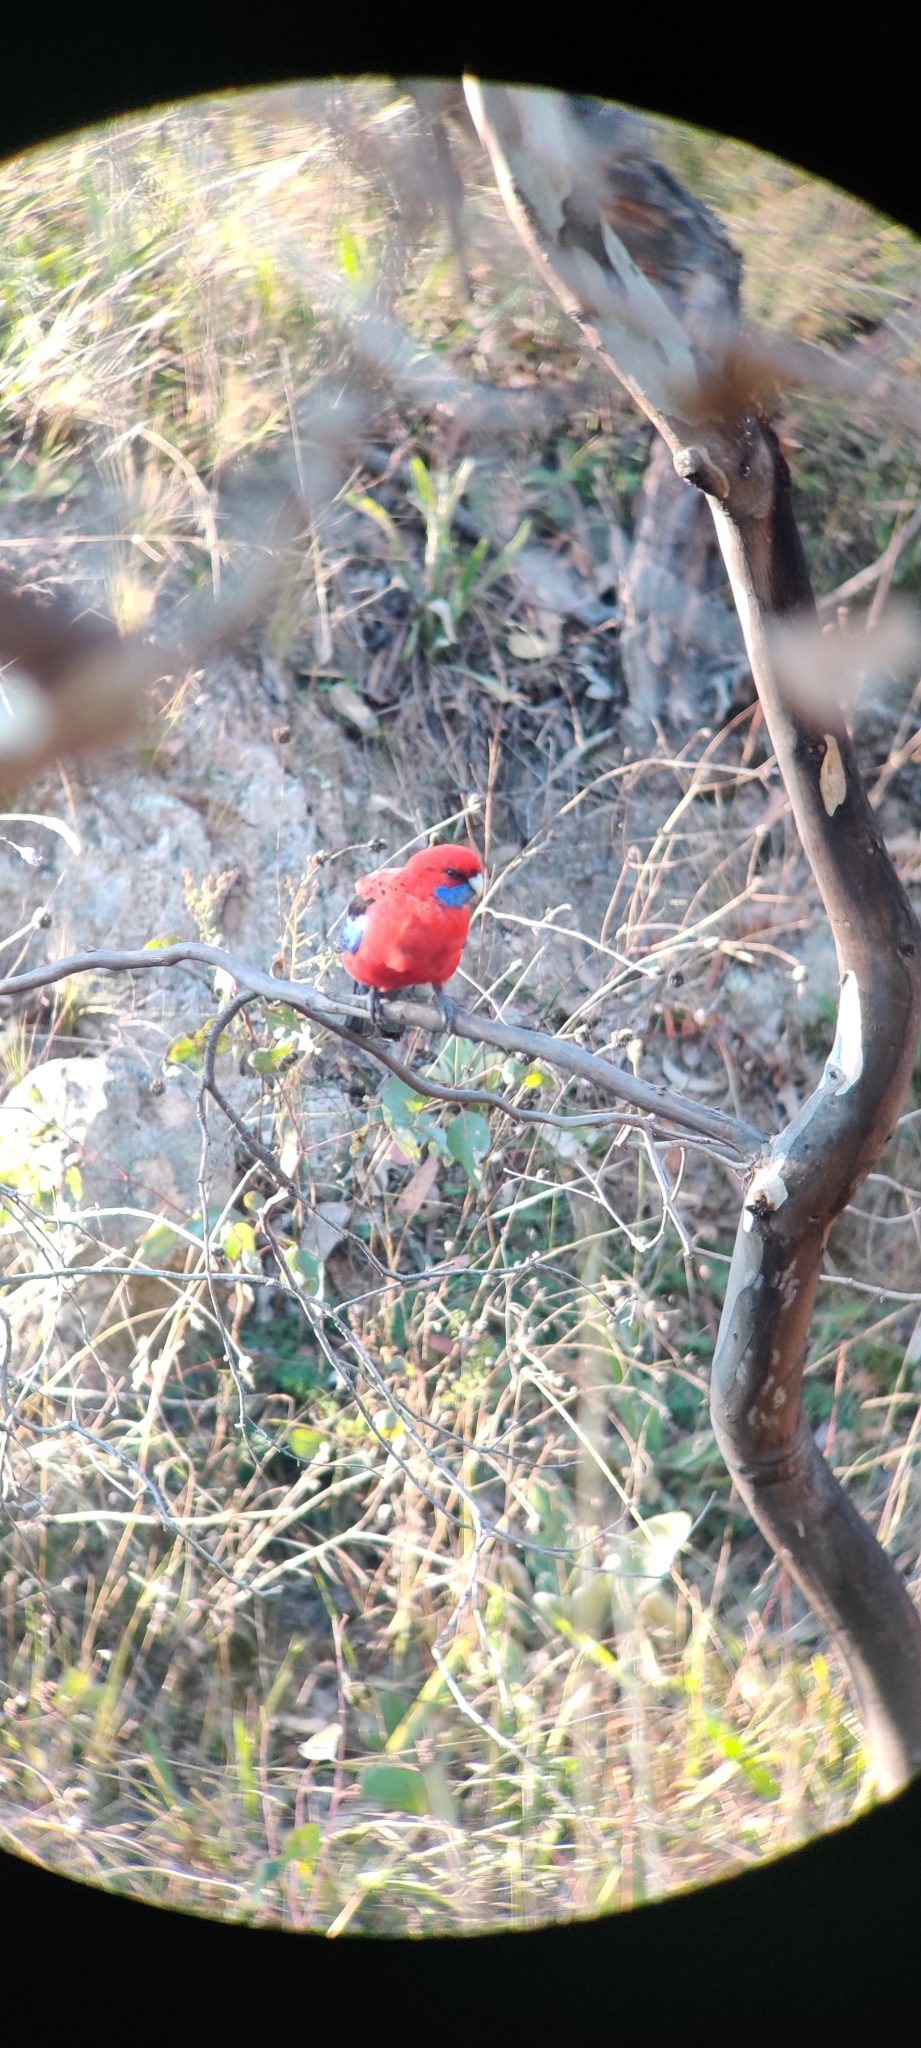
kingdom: Animalia
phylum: Chordata
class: Aves
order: Psittaciformes
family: Psittacidae
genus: Platycercus
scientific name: Platycercus elegans
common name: Crimson rosella
